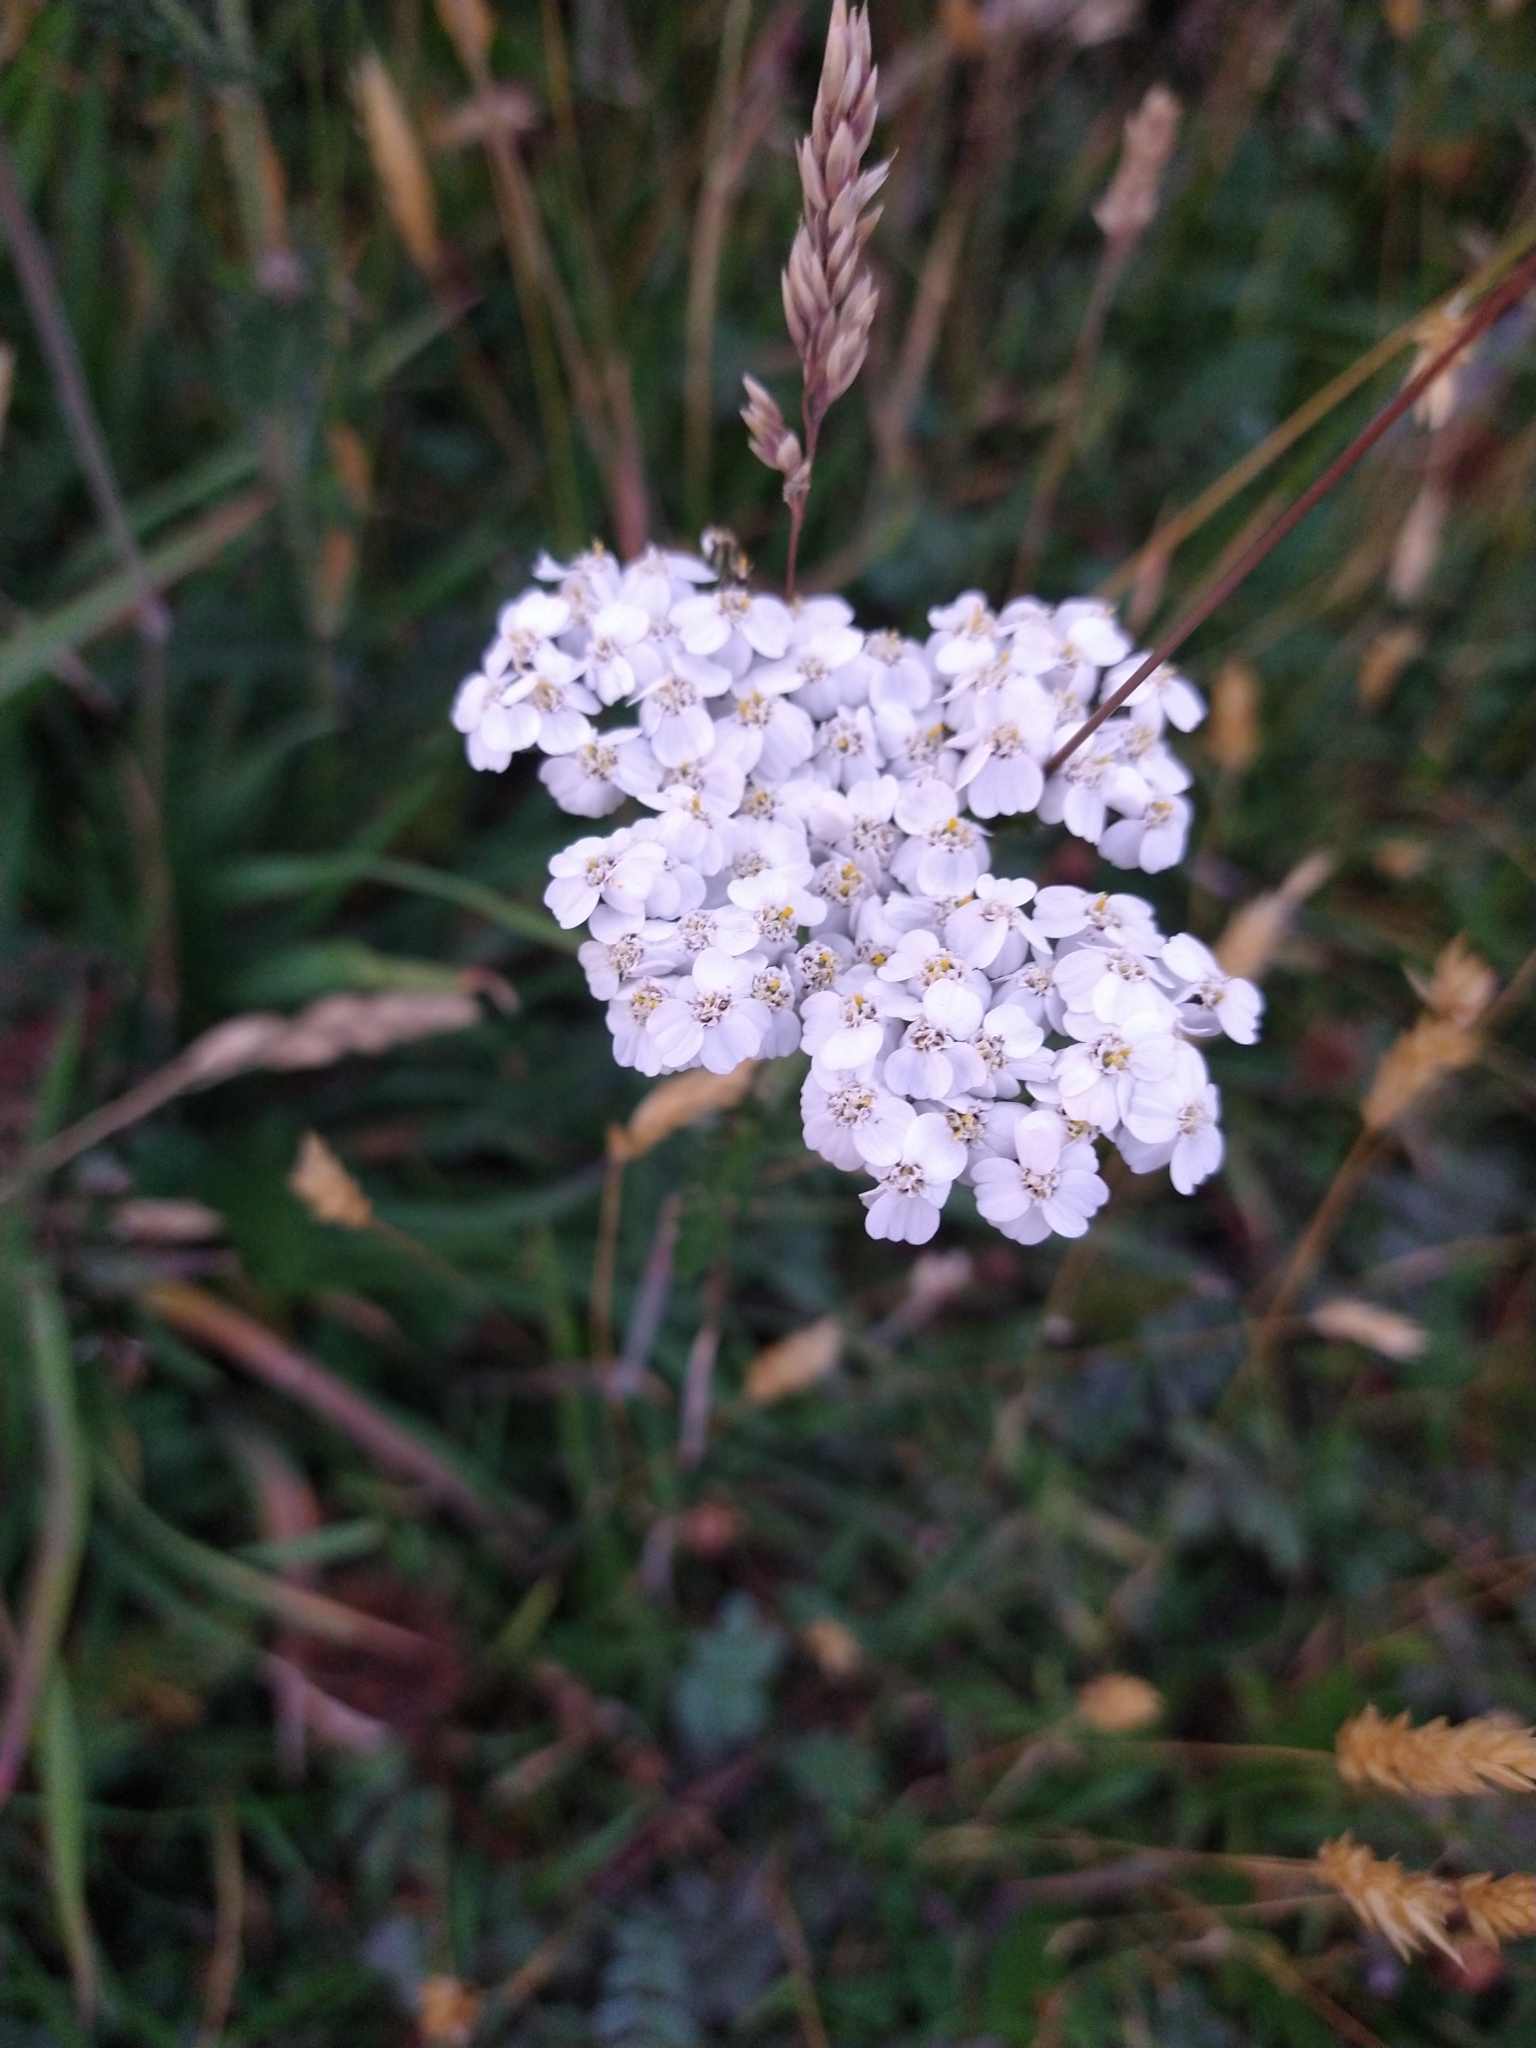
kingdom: Plantae
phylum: Tracheophyta
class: Magnoliopsida
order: Asterales
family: Asteraceae
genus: Achillea
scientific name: Achillea millefolium
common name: Yarrow
